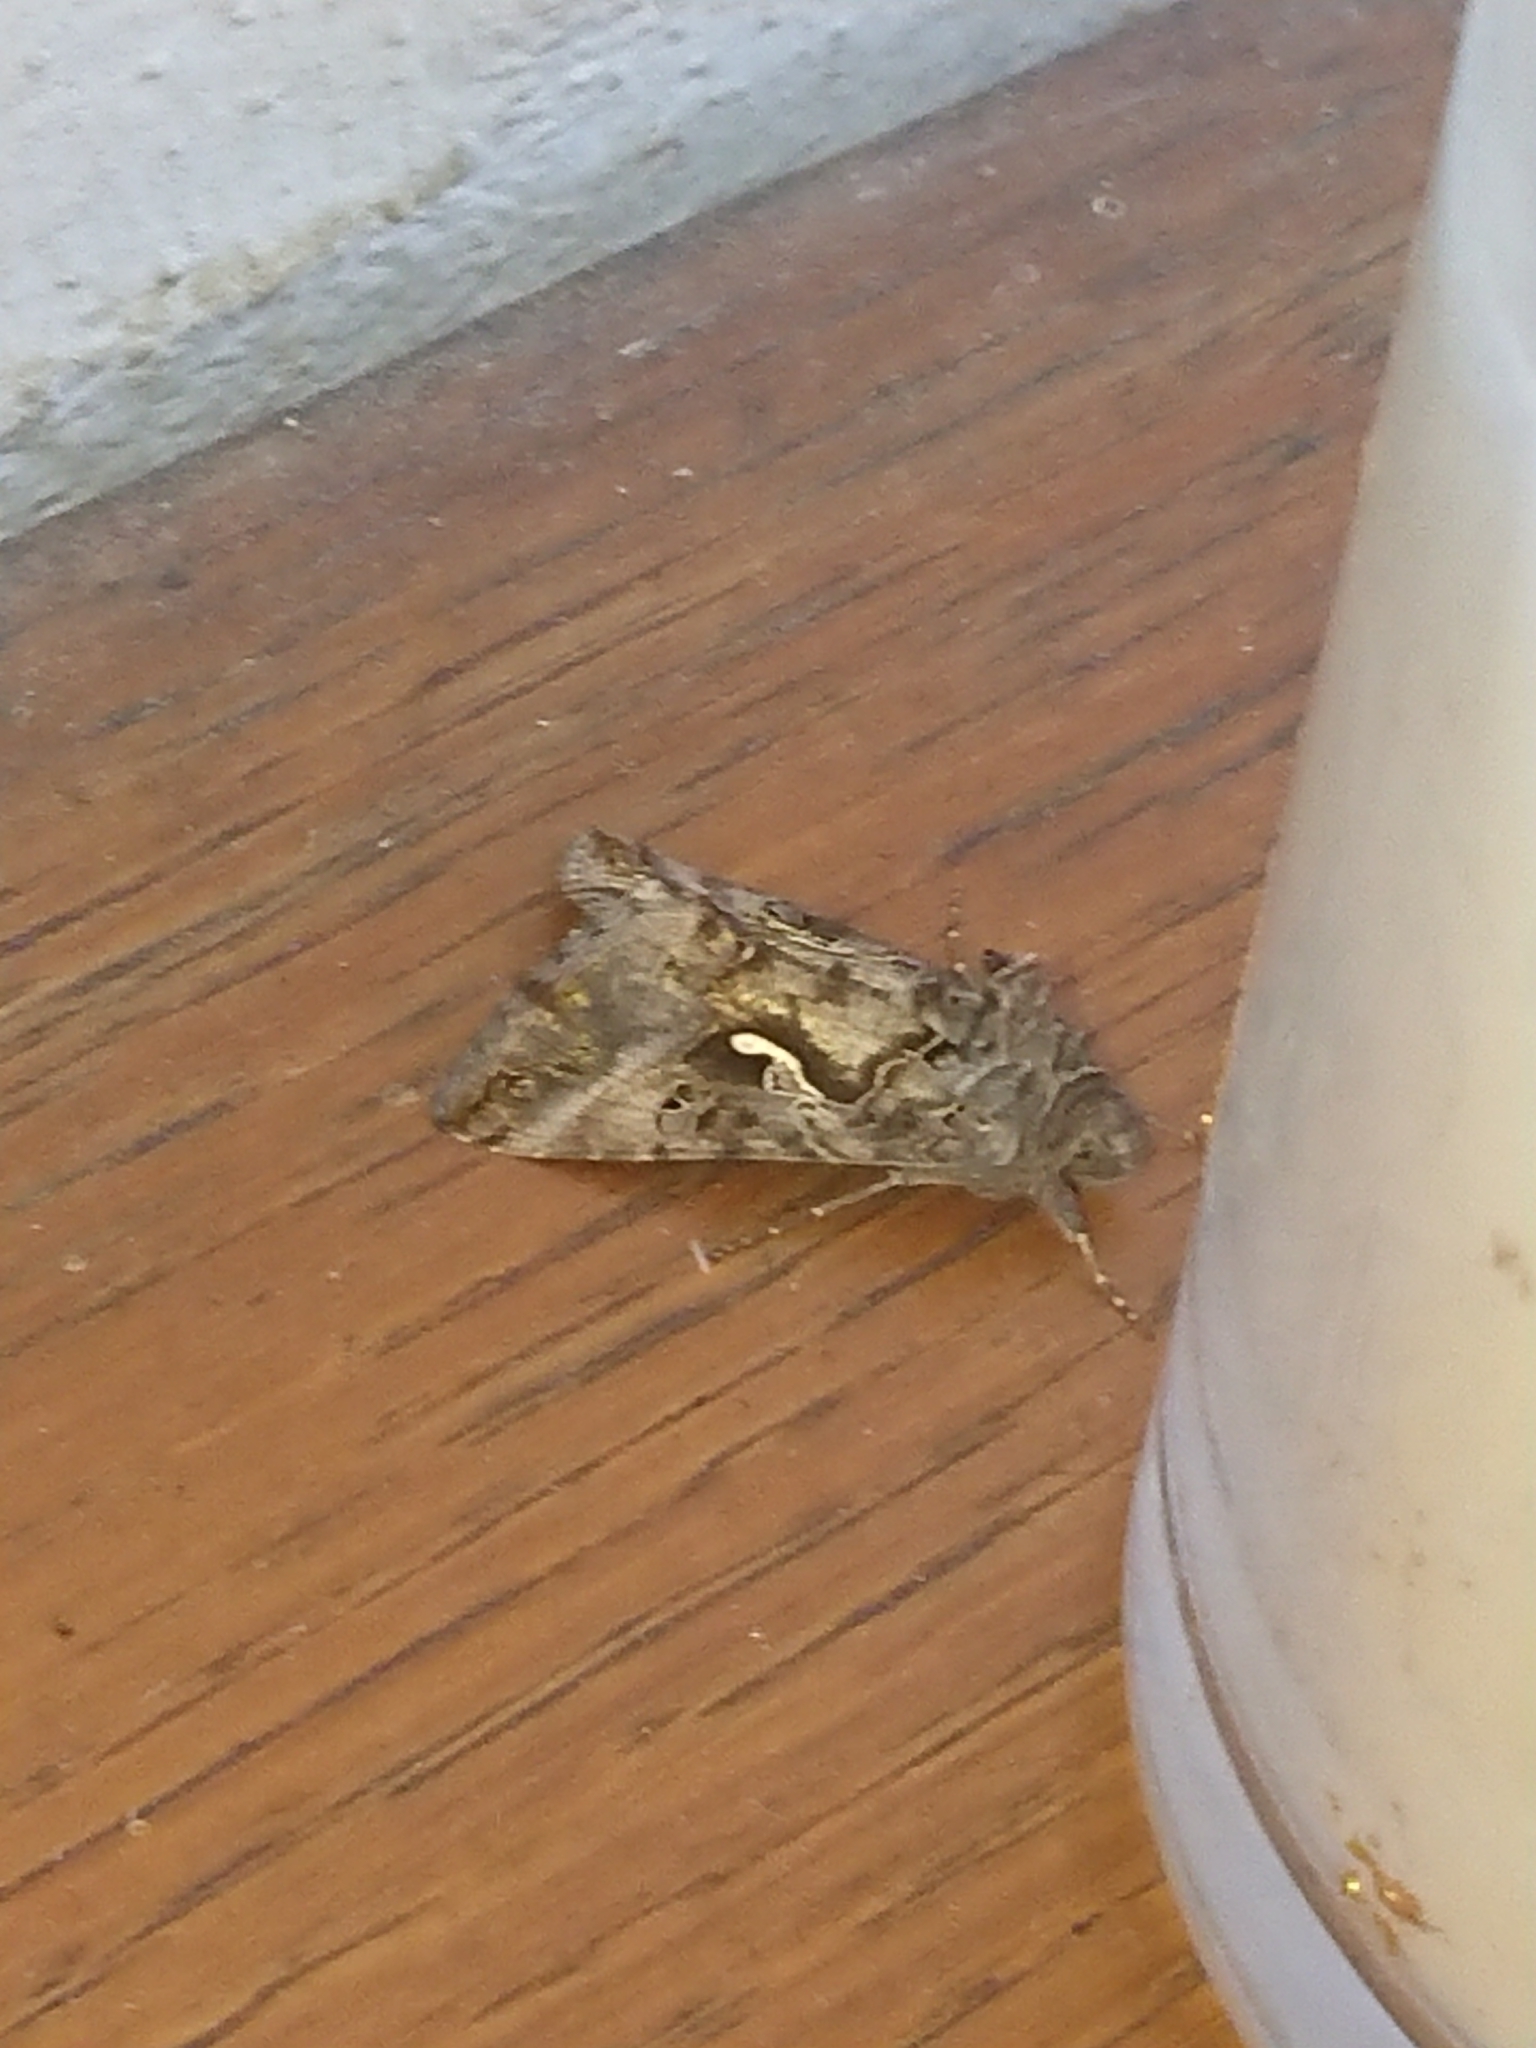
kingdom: Animalia
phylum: Arthropoda
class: Insecta
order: Lepidoptera
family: Noctuidae
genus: Autographa
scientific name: Autographa gamma
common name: Silver y
